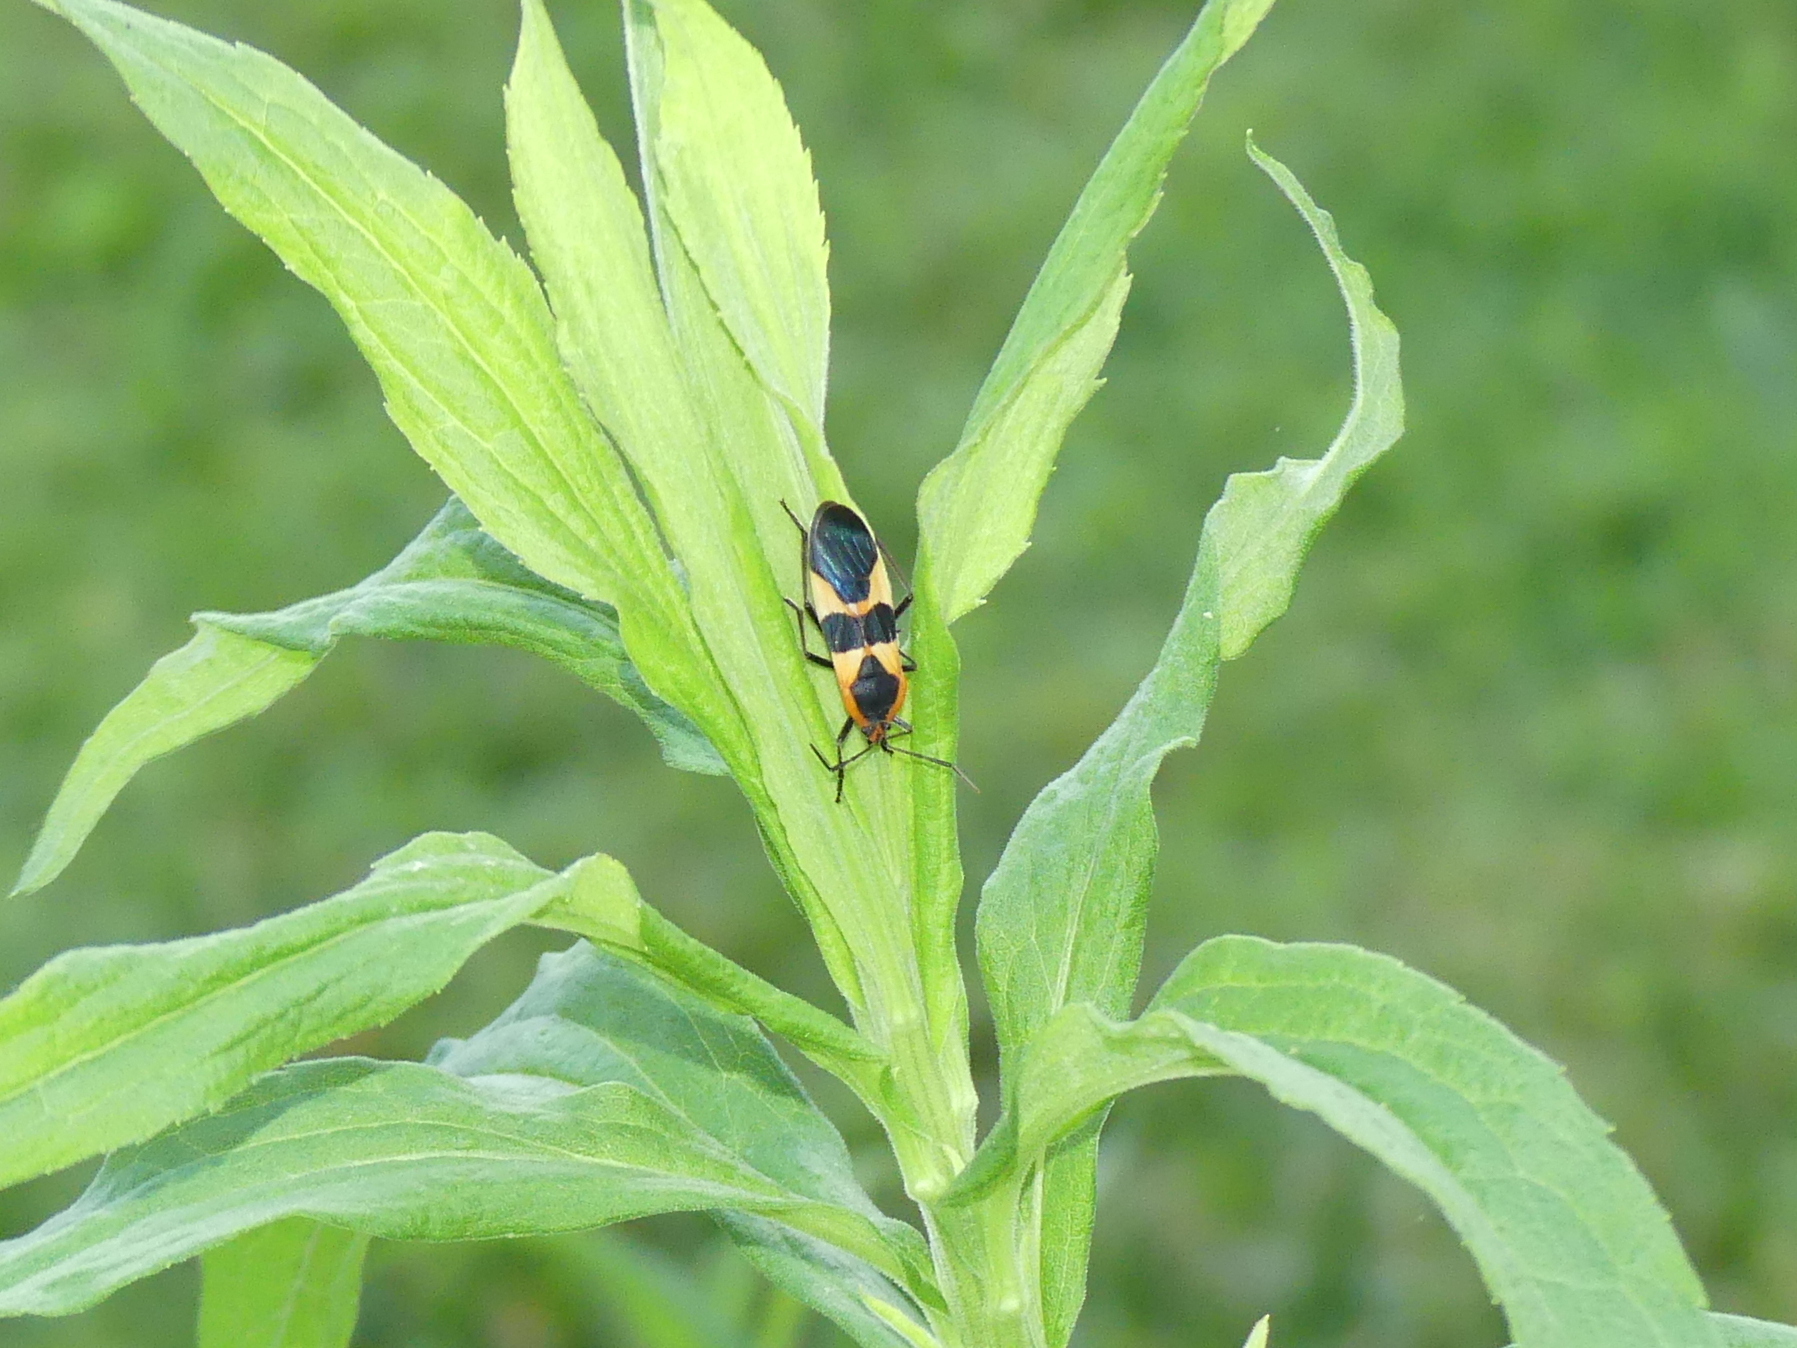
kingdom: Animalia
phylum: Arthropoda
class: Insecta
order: Hemiptera
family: Lygaeidae
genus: Oncopeltus
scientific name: Oncopeltus fasciatus
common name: Large milkweed bug
